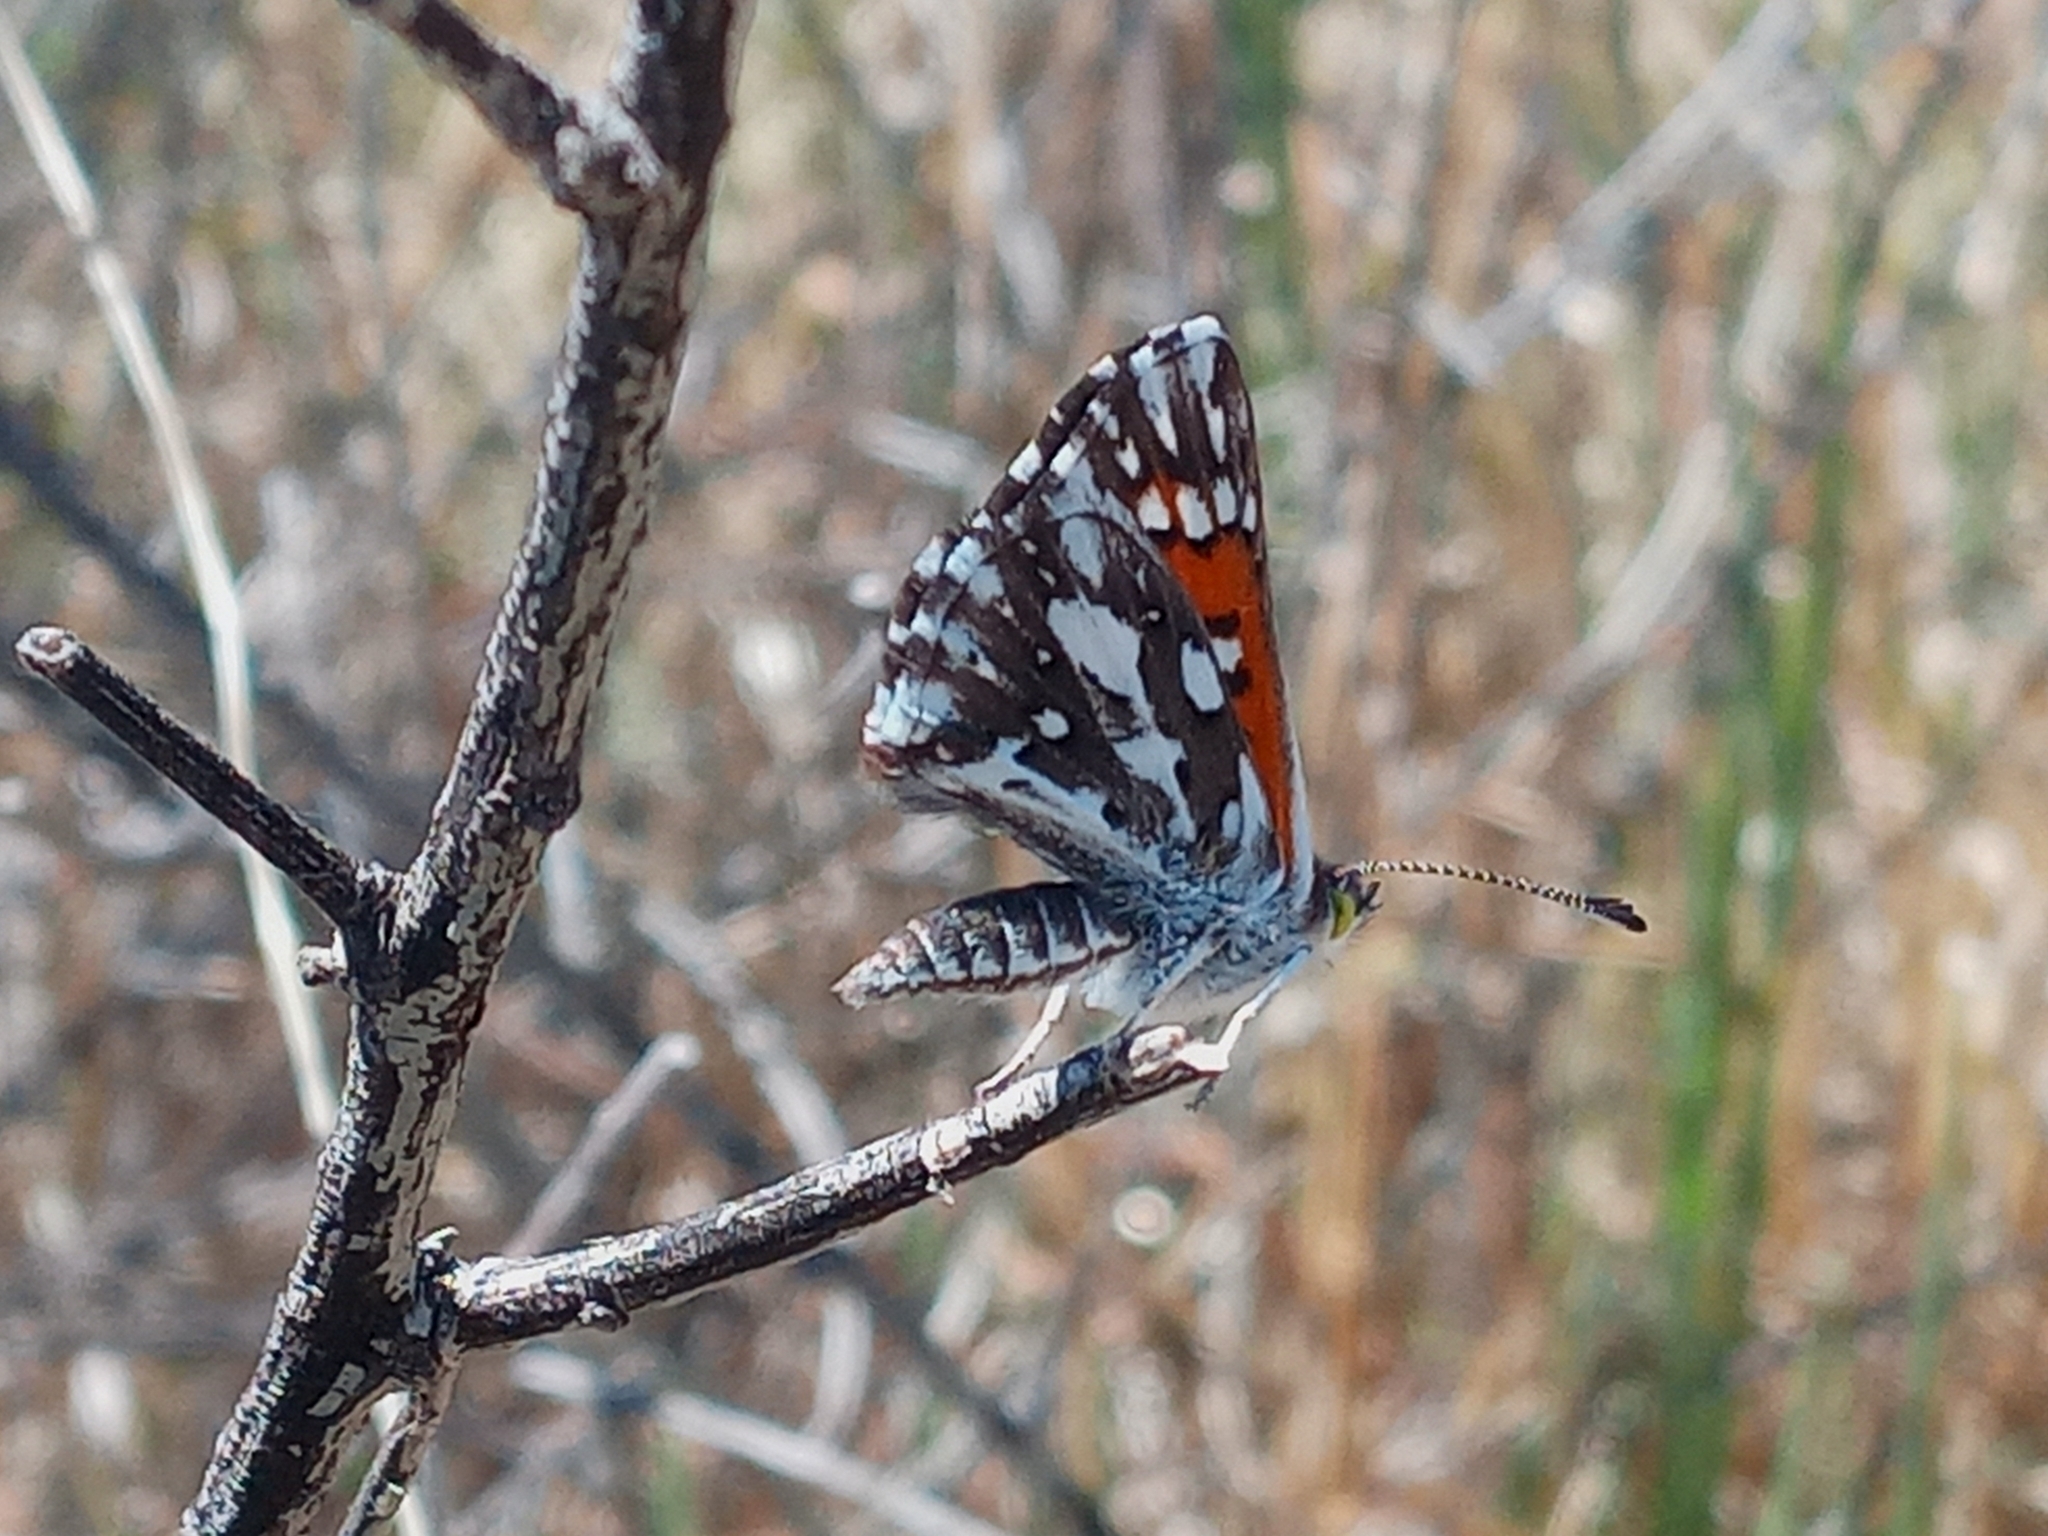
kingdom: Animalia
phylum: Arthropoda
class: Insecta
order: Lepidoptera
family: Riodinidae
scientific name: Riodinidae
